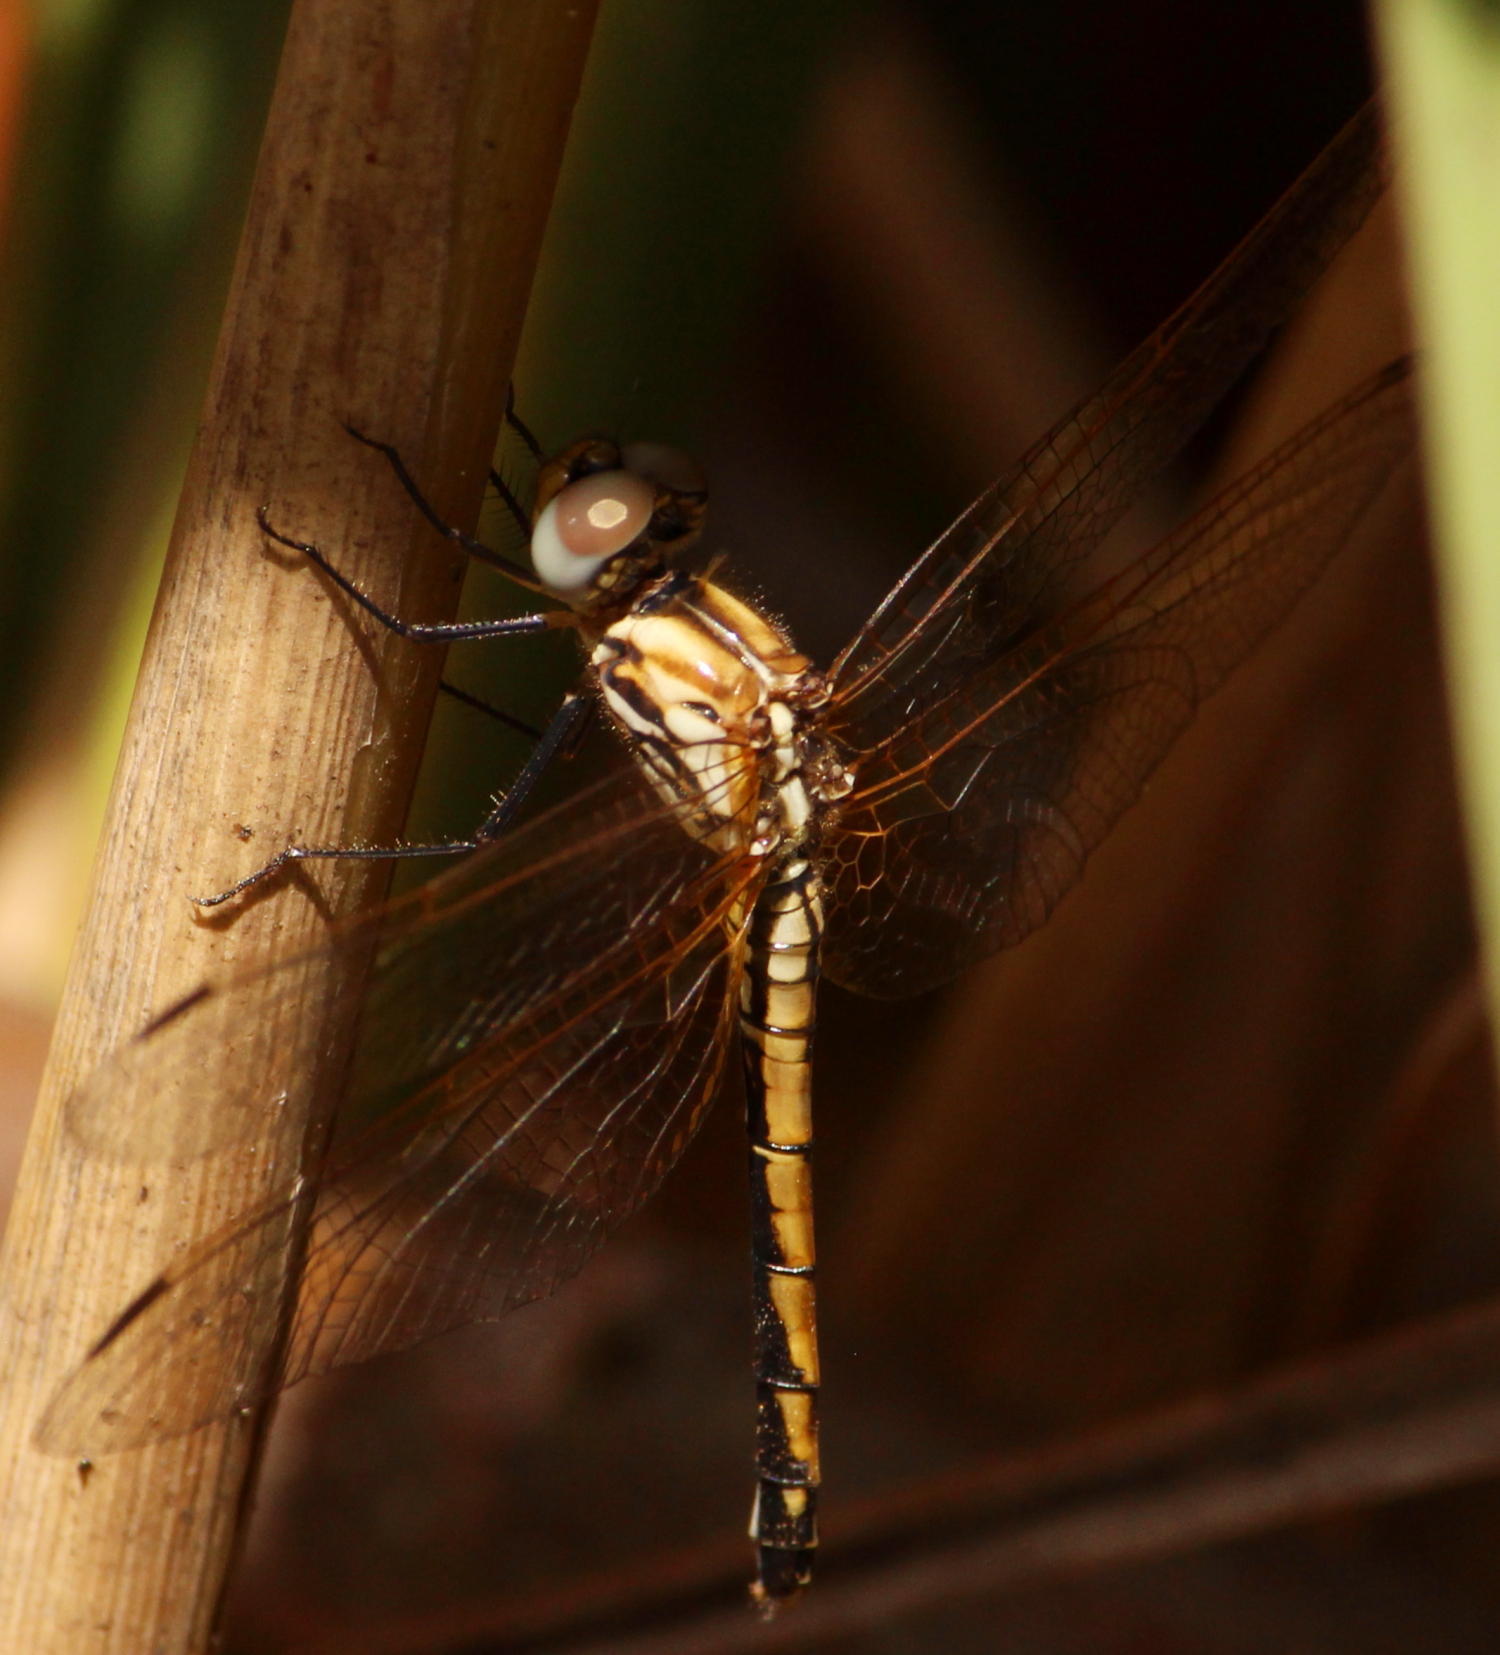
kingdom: Animalia
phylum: Arthropoda
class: Insecta
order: Odonata
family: Libellulidae
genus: Trithemis
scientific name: Trithemis arteriosa
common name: Red-veined dropwing
